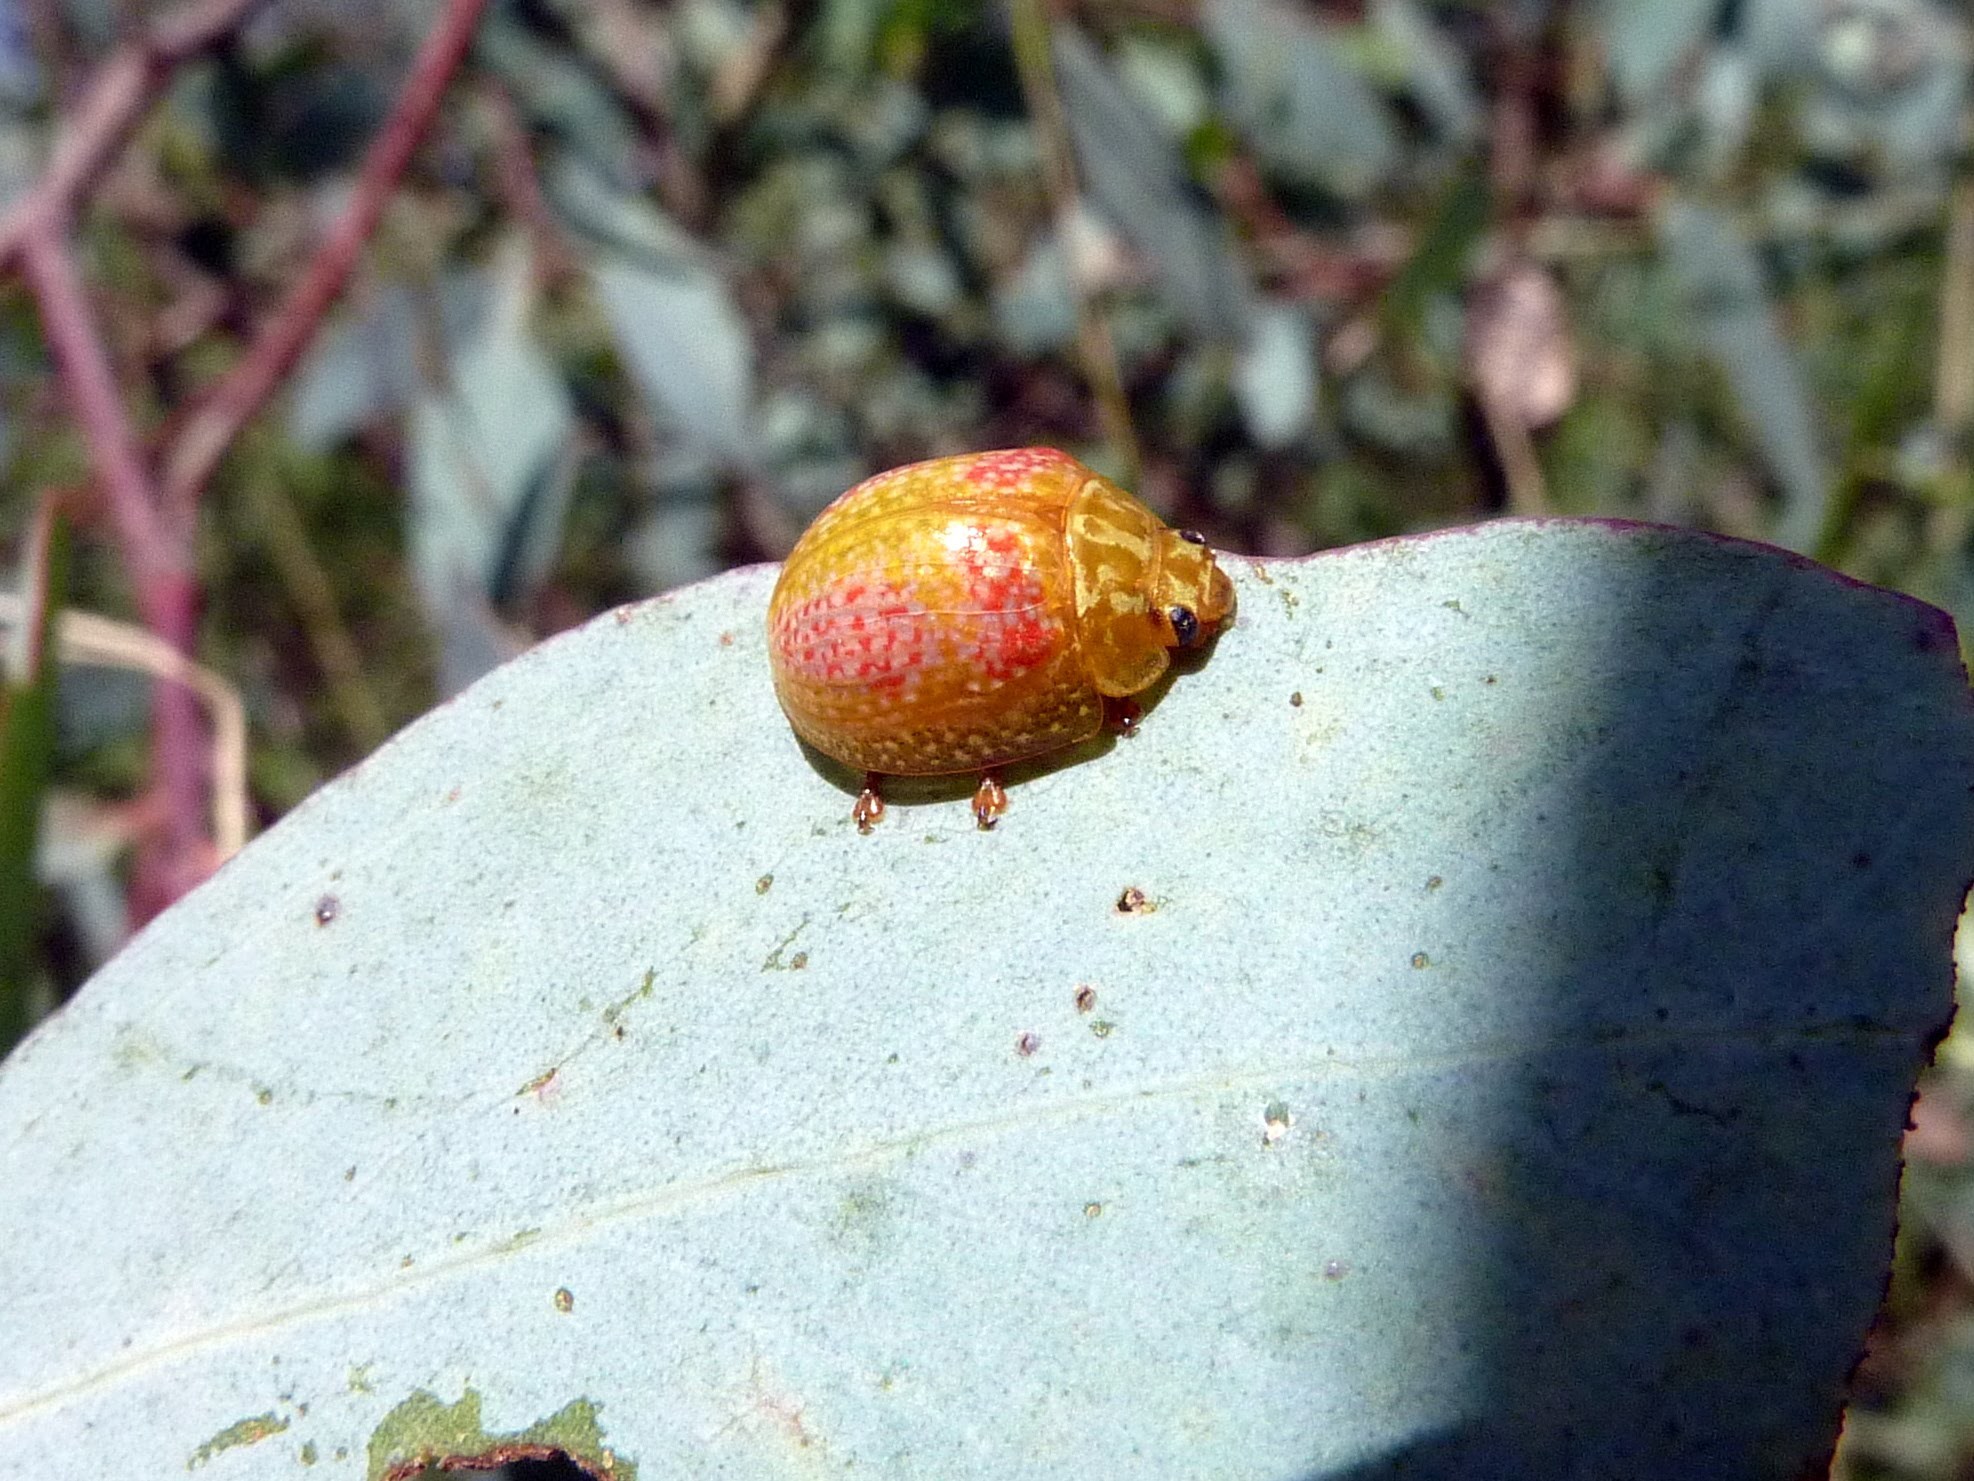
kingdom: Animalia
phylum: Arthropoda
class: Insecta
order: Coleoptera
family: Chrysomelidae
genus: Paropsisterna
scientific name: Paropsisterna
